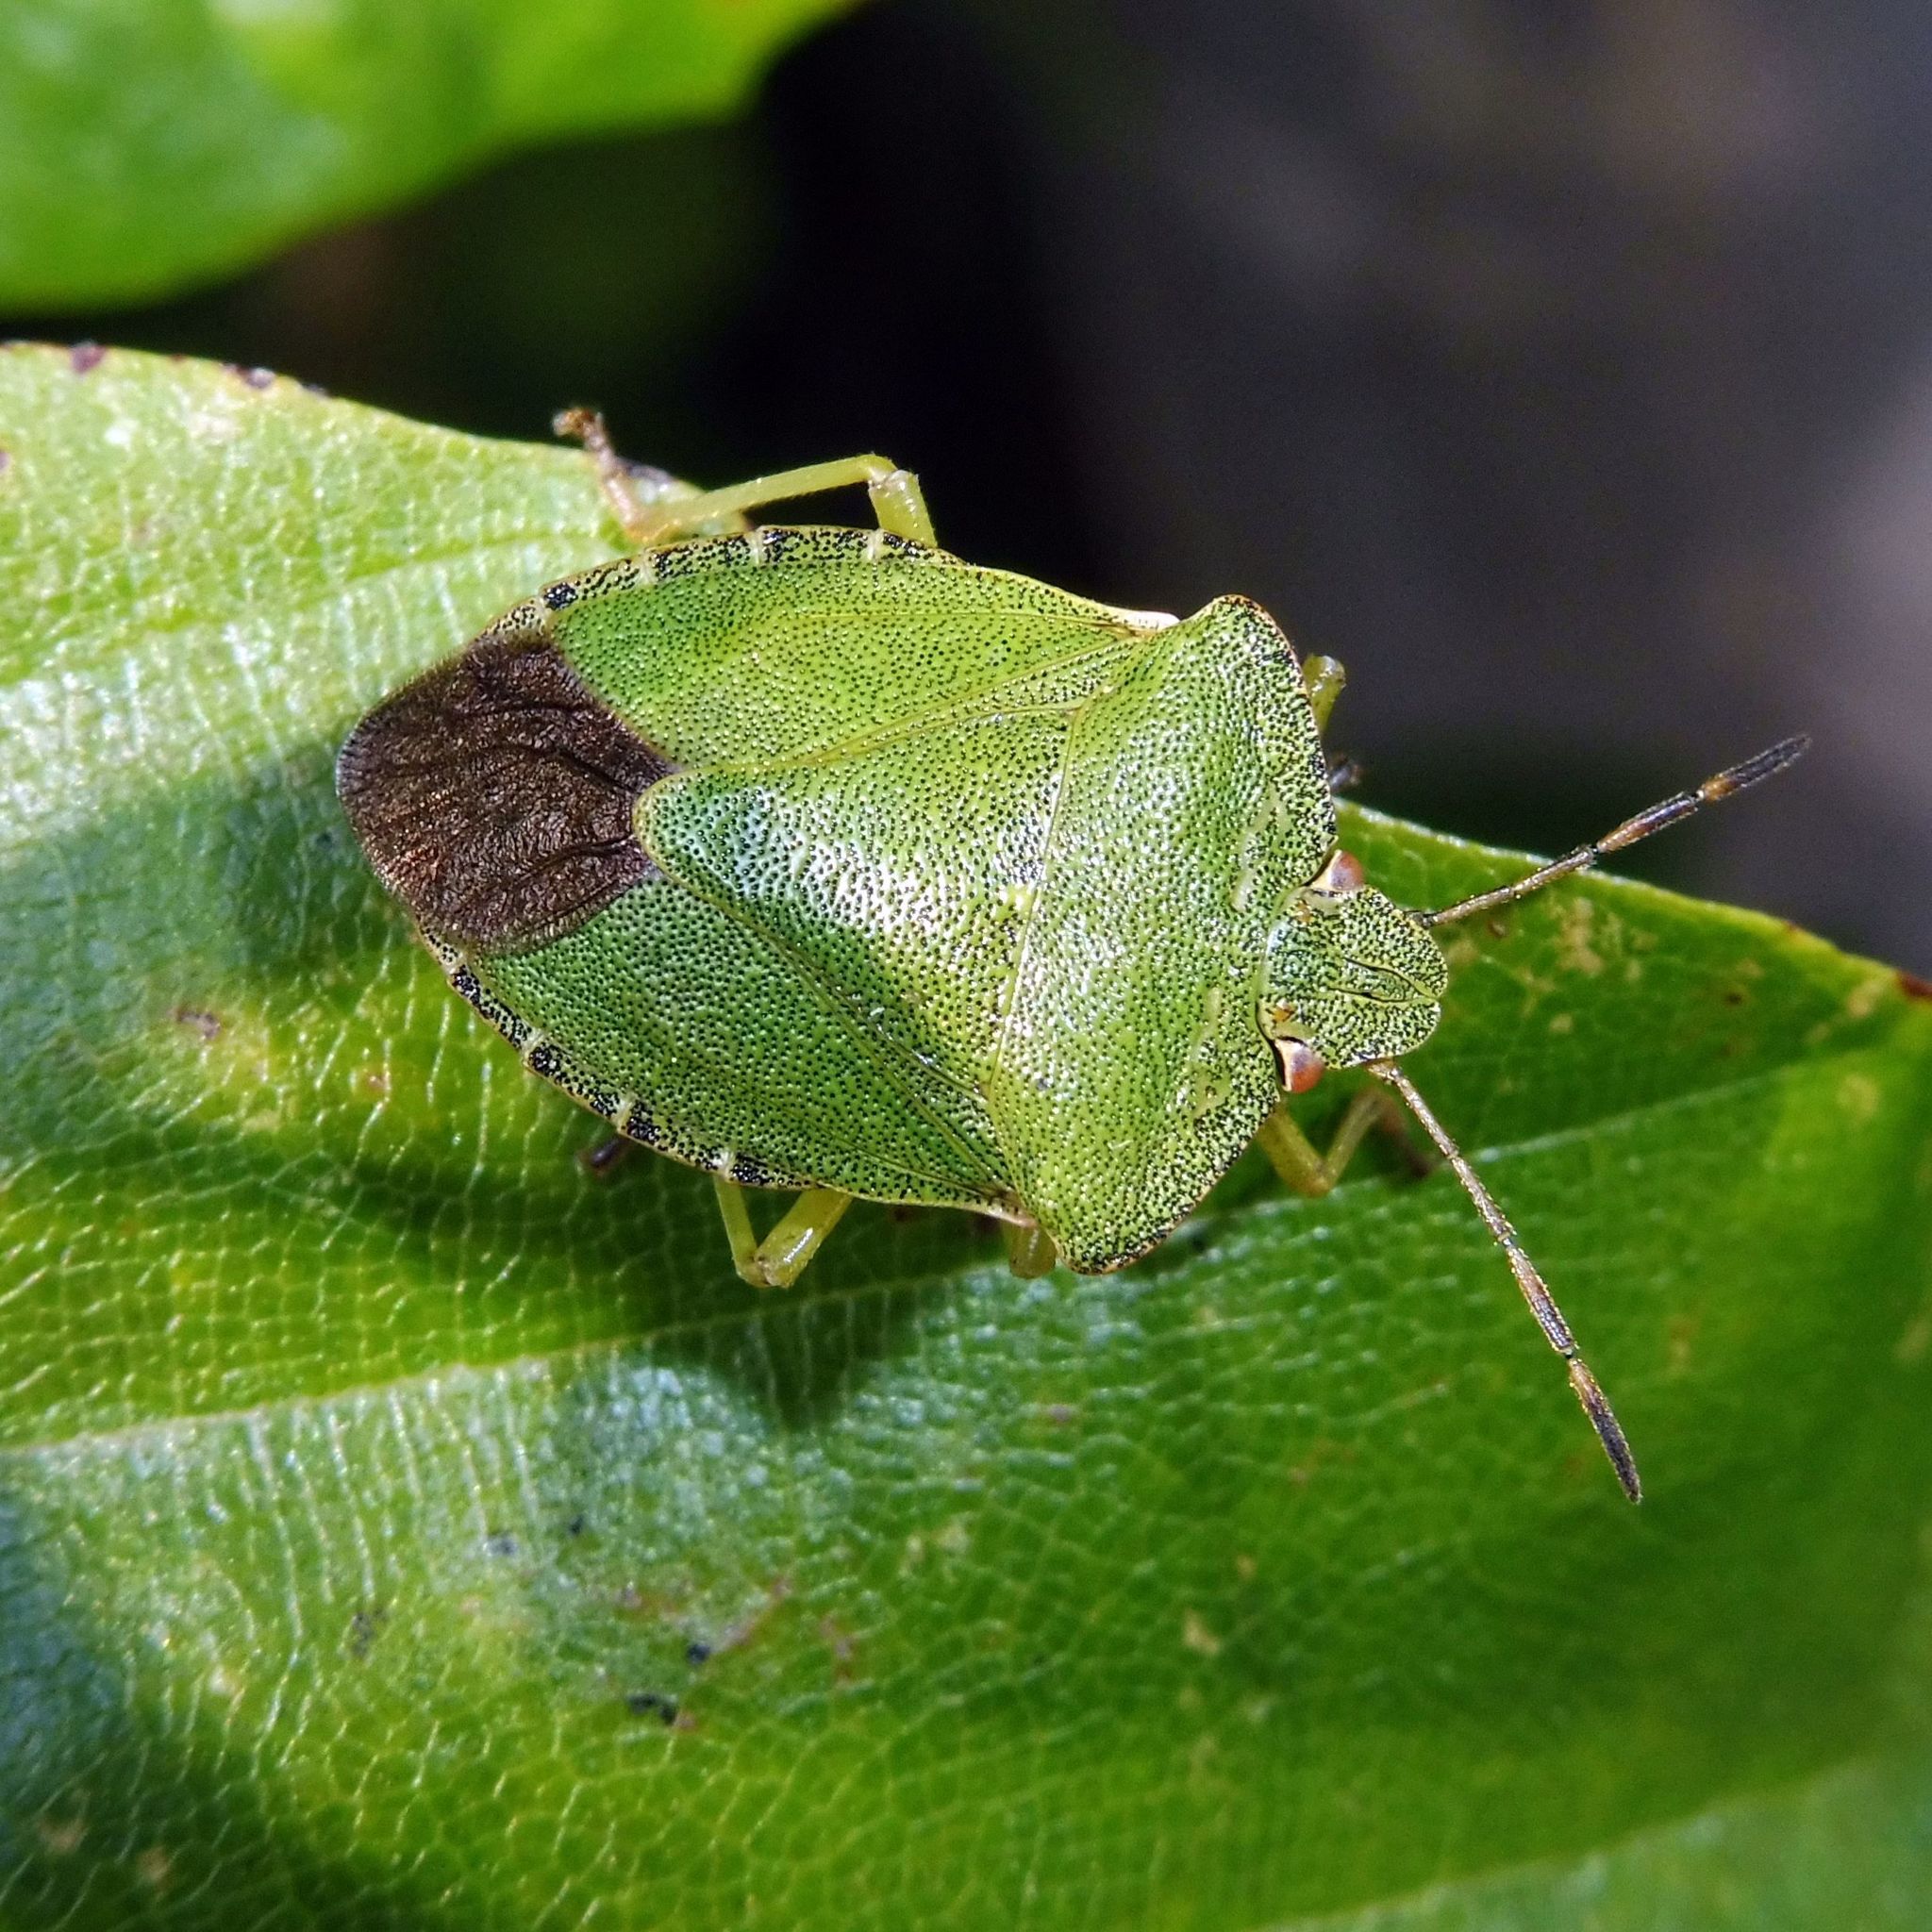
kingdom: Animalia
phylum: Arthropoda
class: Insecta
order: Hemiptera
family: Pentatomidae
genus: Palomena
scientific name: Palomena prasina
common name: Green shieldbug
